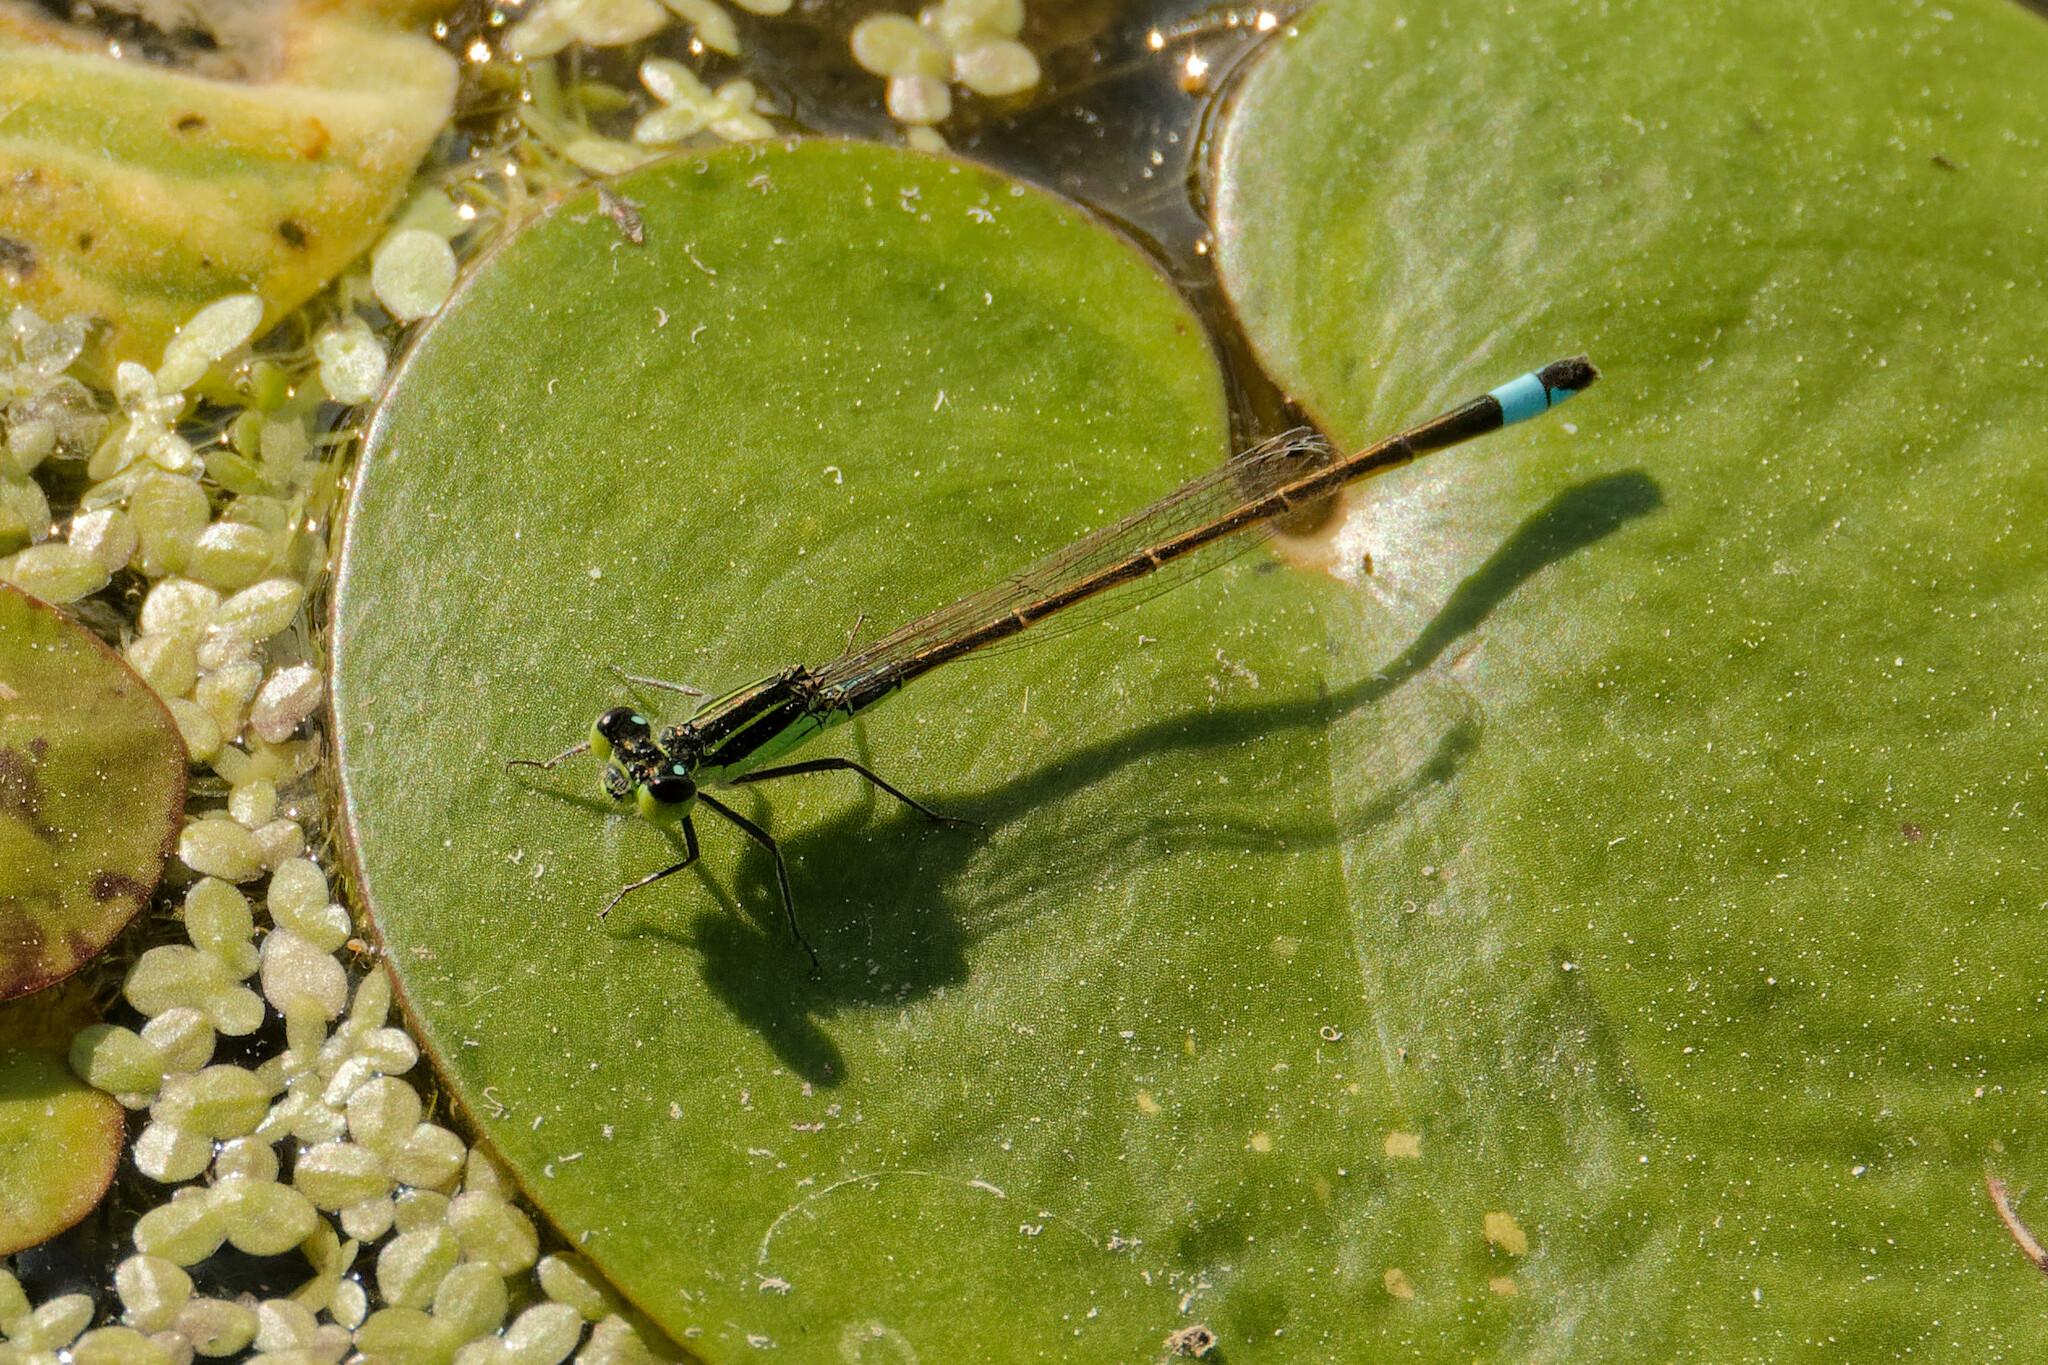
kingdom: Animalia
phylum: Arthropoda
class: Insecta
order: Odonata
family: Coenagrionidae
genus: Ischnura
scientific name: Ischnura ramburii
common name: Rambur's forktail
